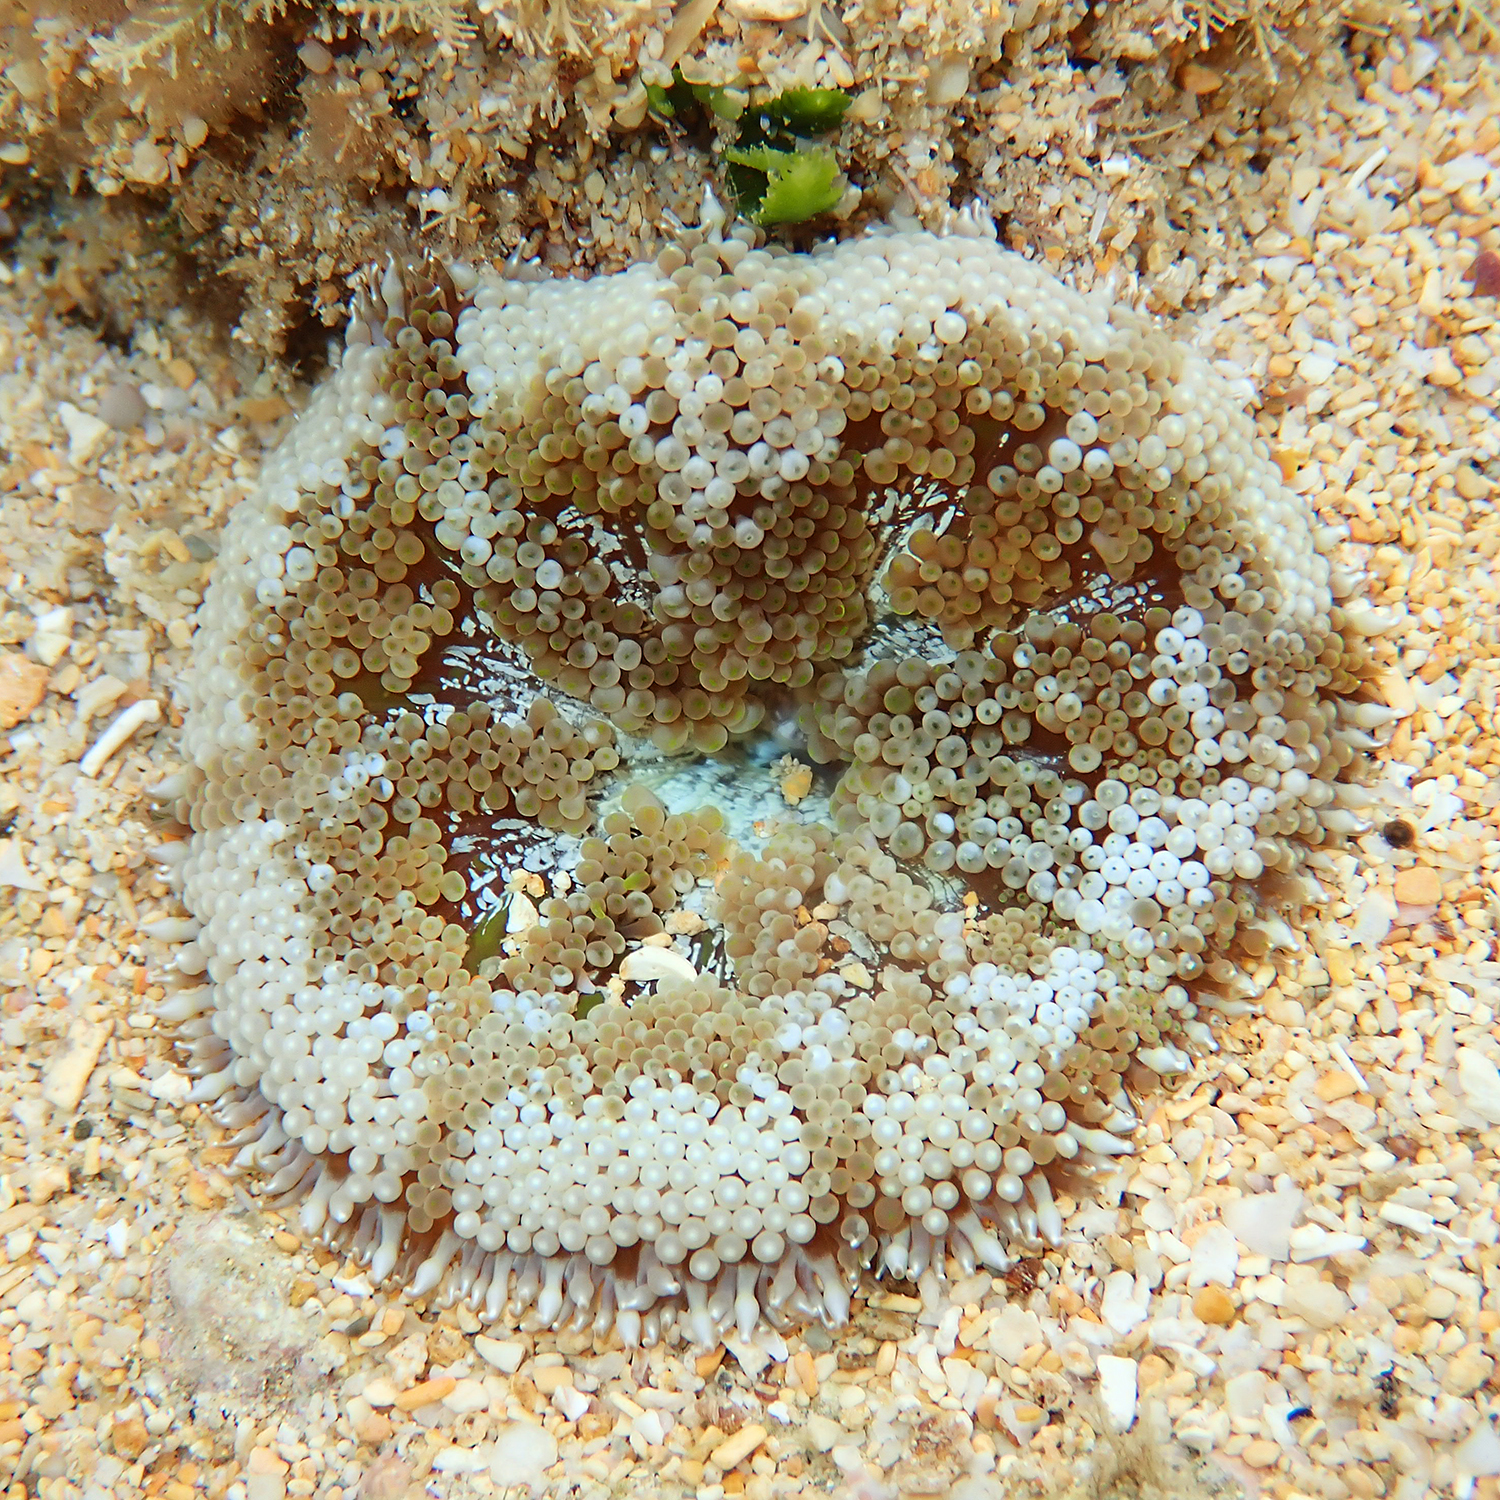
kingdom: Animalia
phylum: Cnidaria
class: Anthozoa
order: Actiniaria
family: Stichodactylidae
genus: Stichodactyla
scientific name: Stichodactyla tapetum
